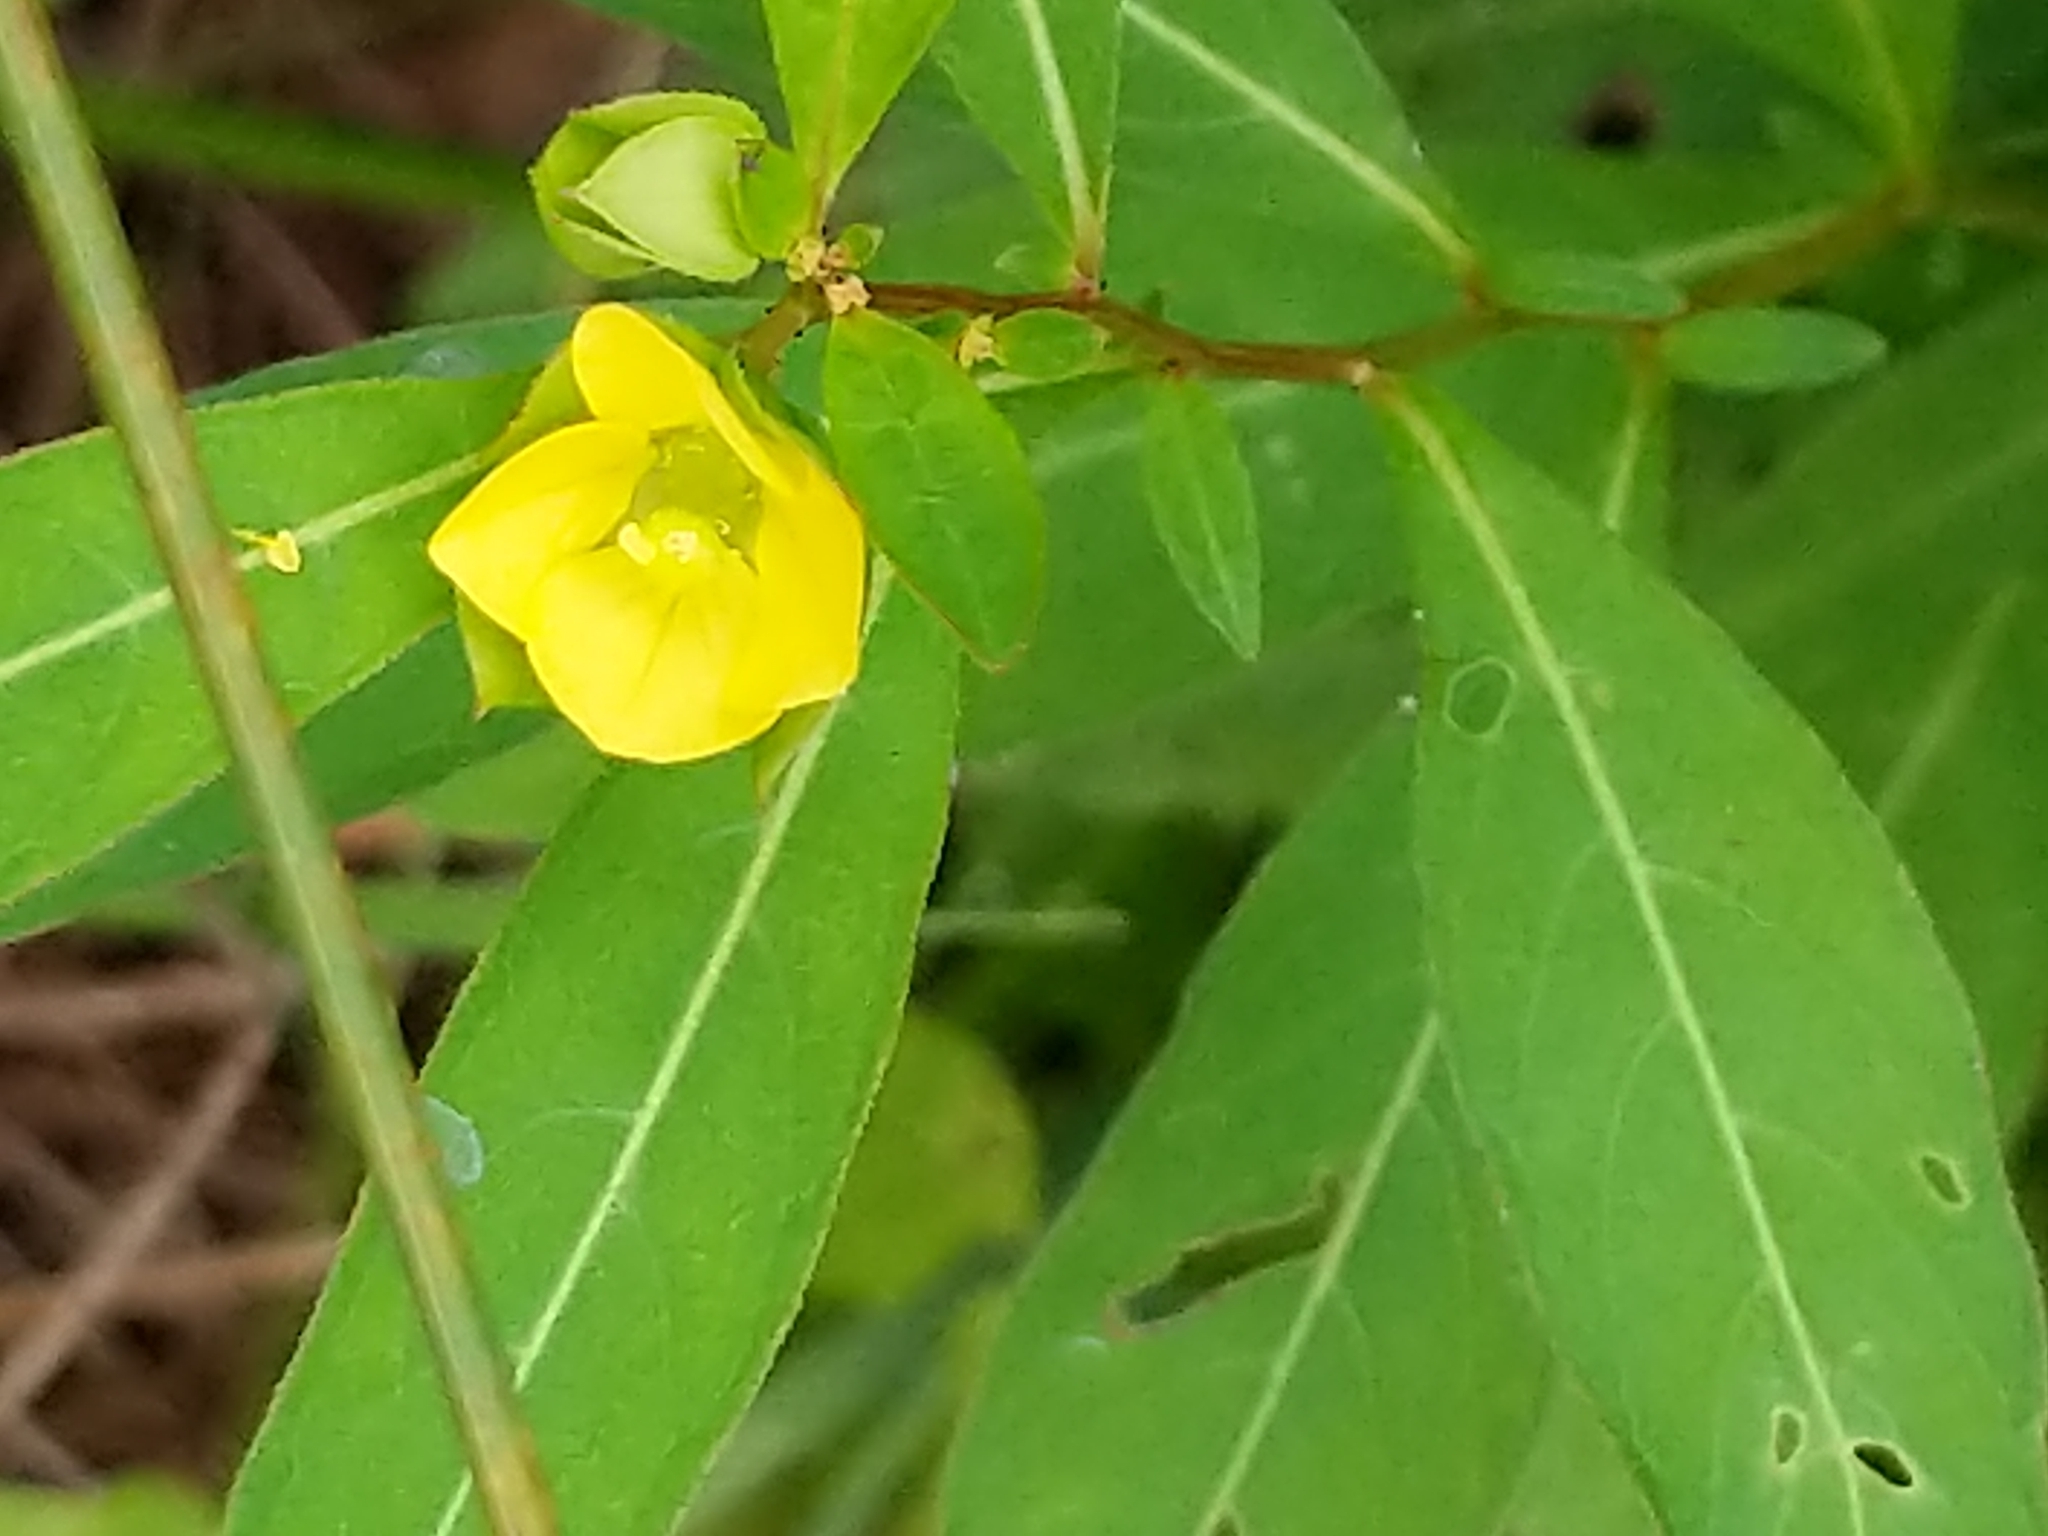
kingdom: Plantae
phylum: Tracheophyta
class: Magnoliopsida
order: Myrtales
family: Onagraceae
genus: Ludwigia
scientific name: Ludwigia alternifolia
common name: Rattlebox
